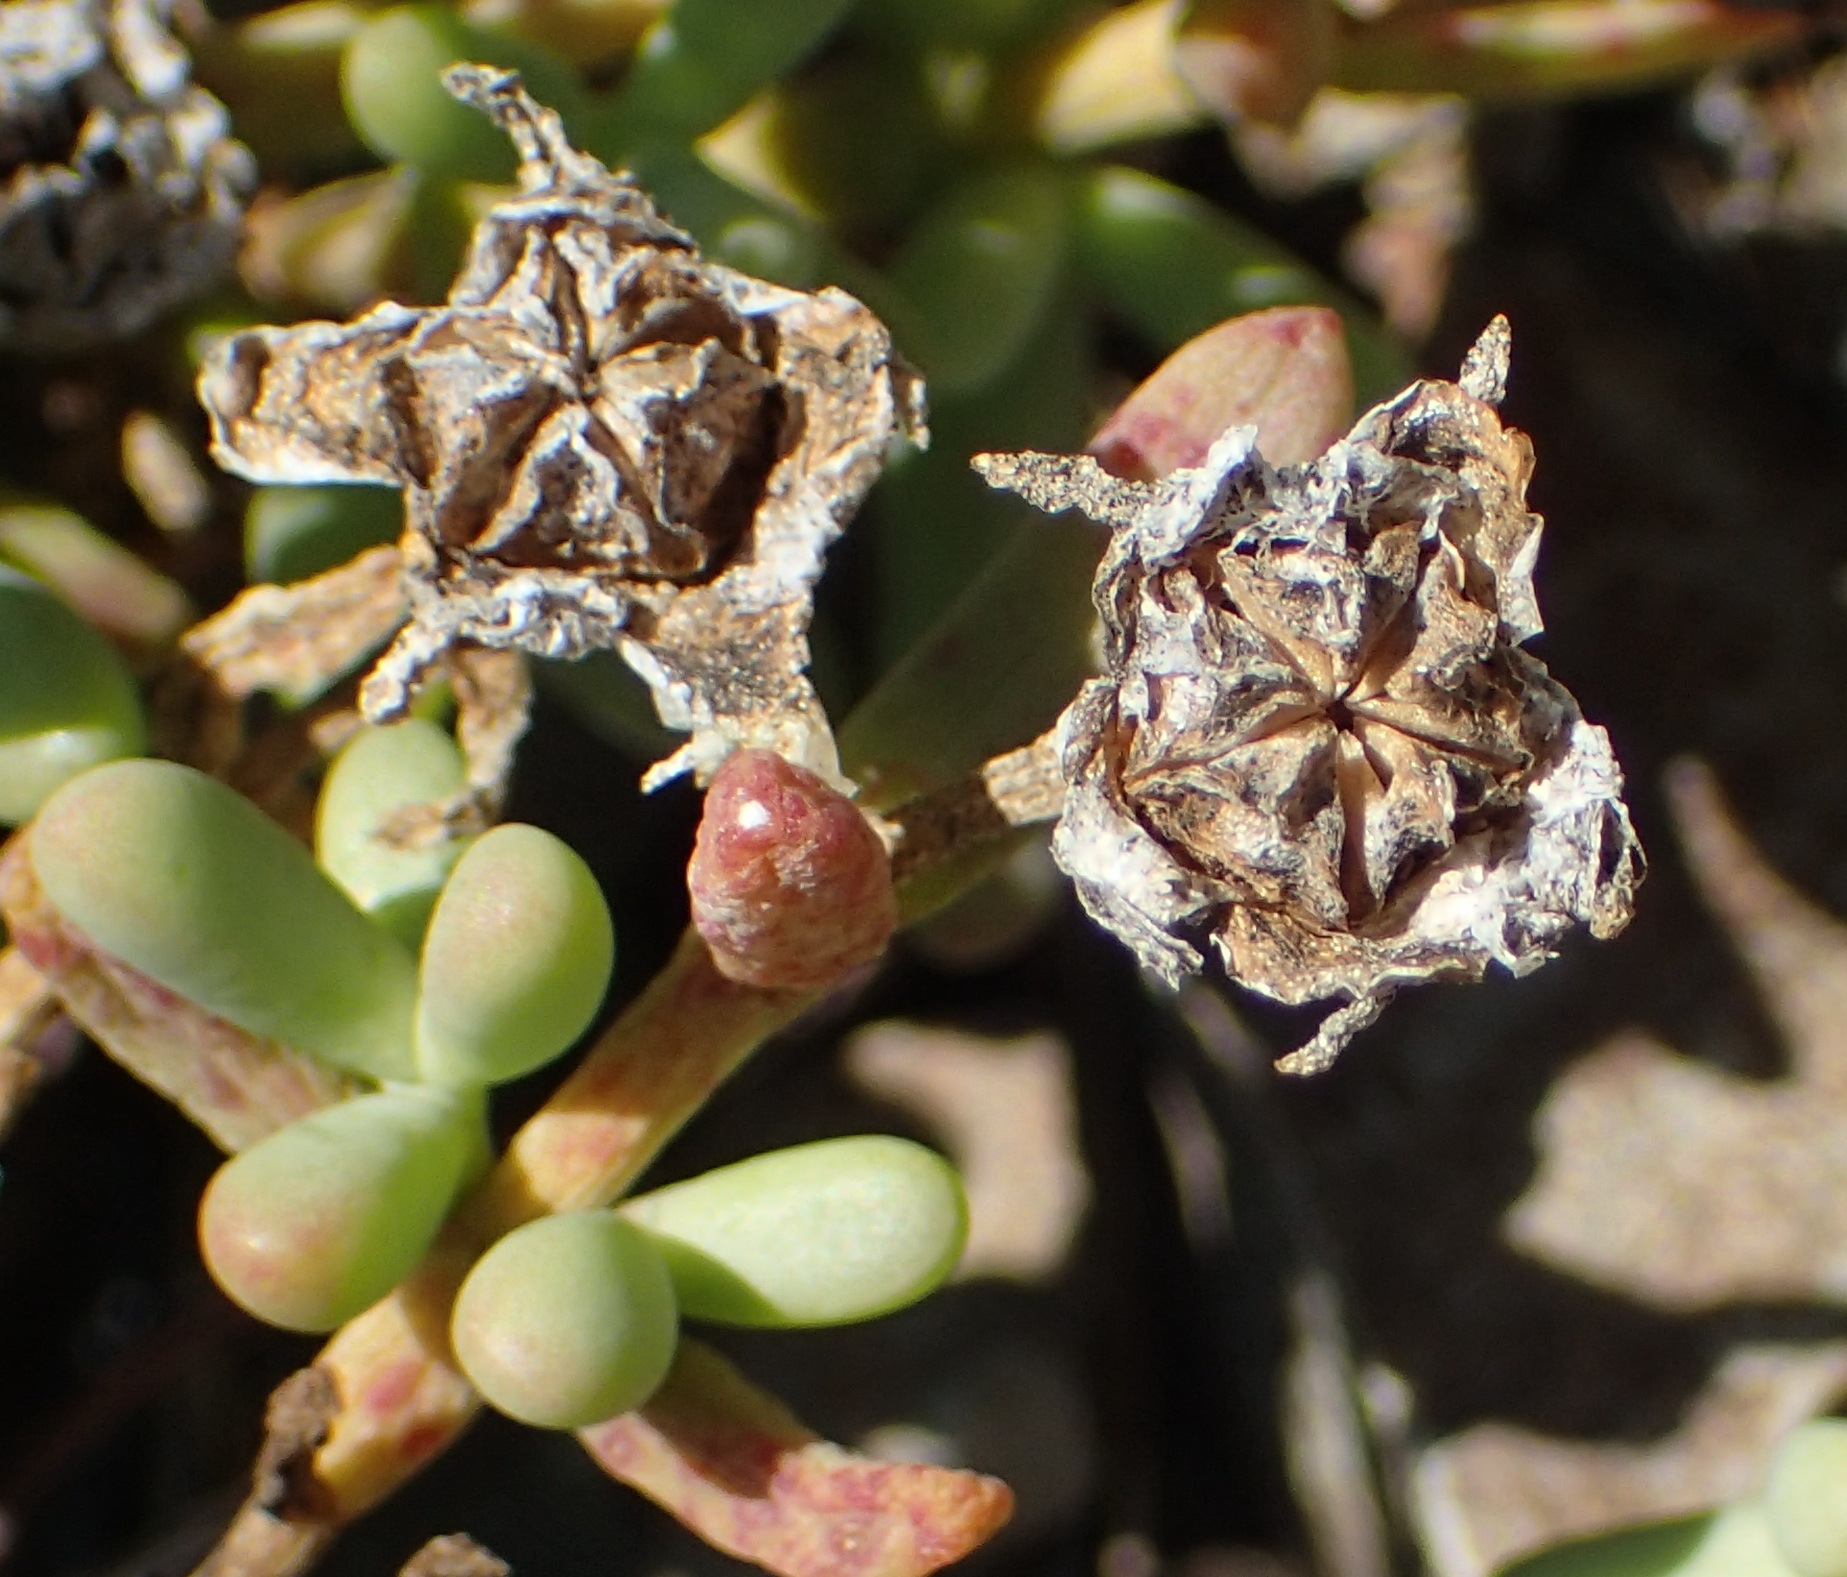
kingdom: Plantae
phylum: Tracheophyta
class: Magnoliopsida
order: Caryophyllales
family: Aizoaceae
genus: Mesembryanthemum
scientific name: Mesembryanthemum splendens
